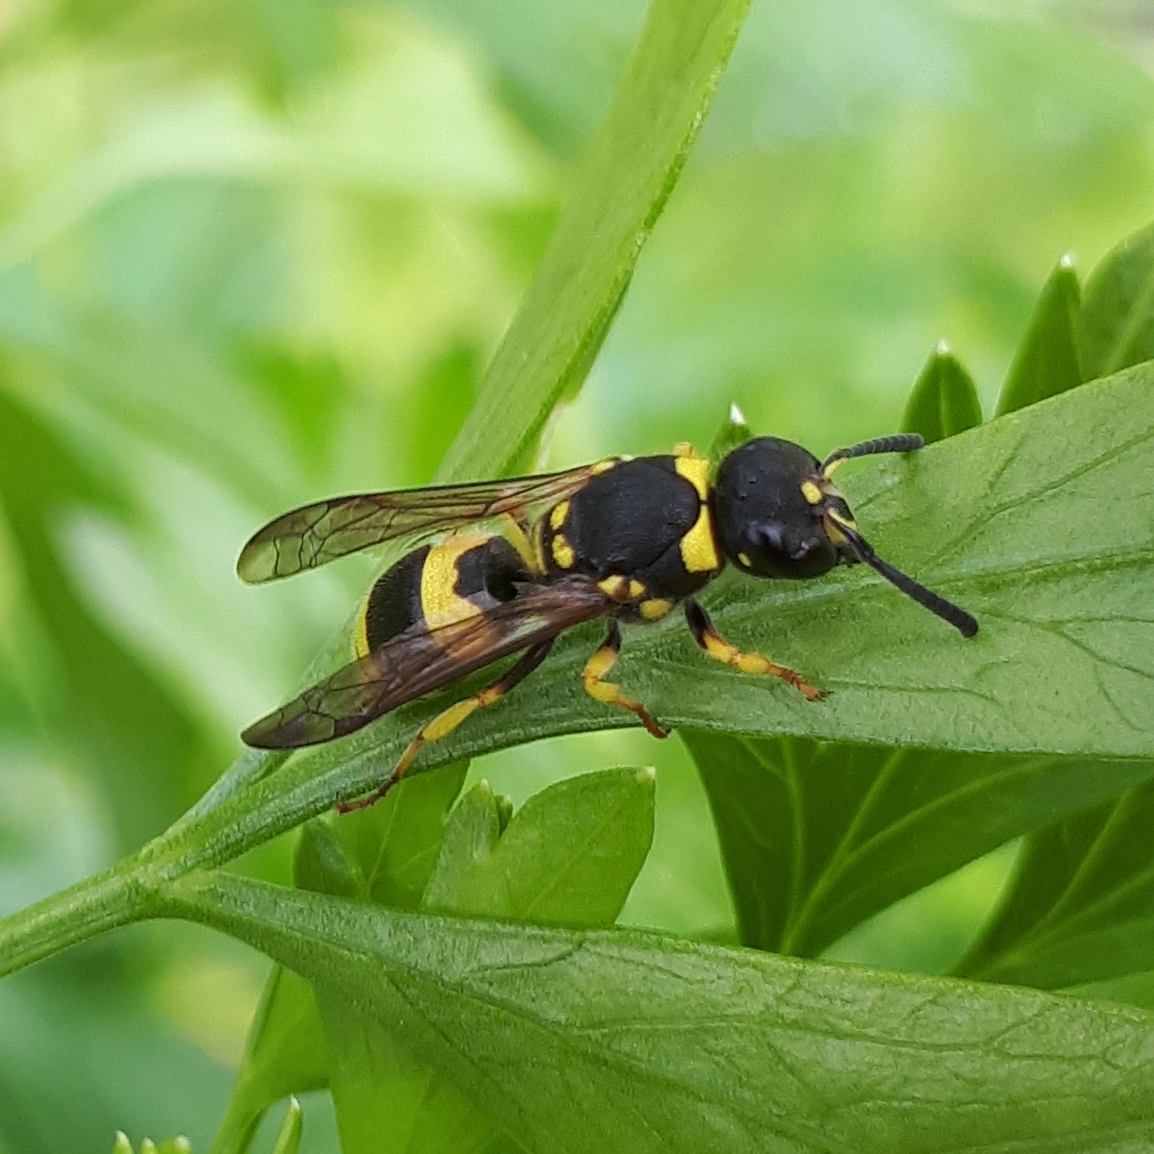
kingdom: Animalia
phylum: Arthropoda
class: Insecta
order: Hymenoptera
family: Vespidae
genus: Ancistrocerus
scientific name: Ancistrocerus gazella
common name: European tube wasp
